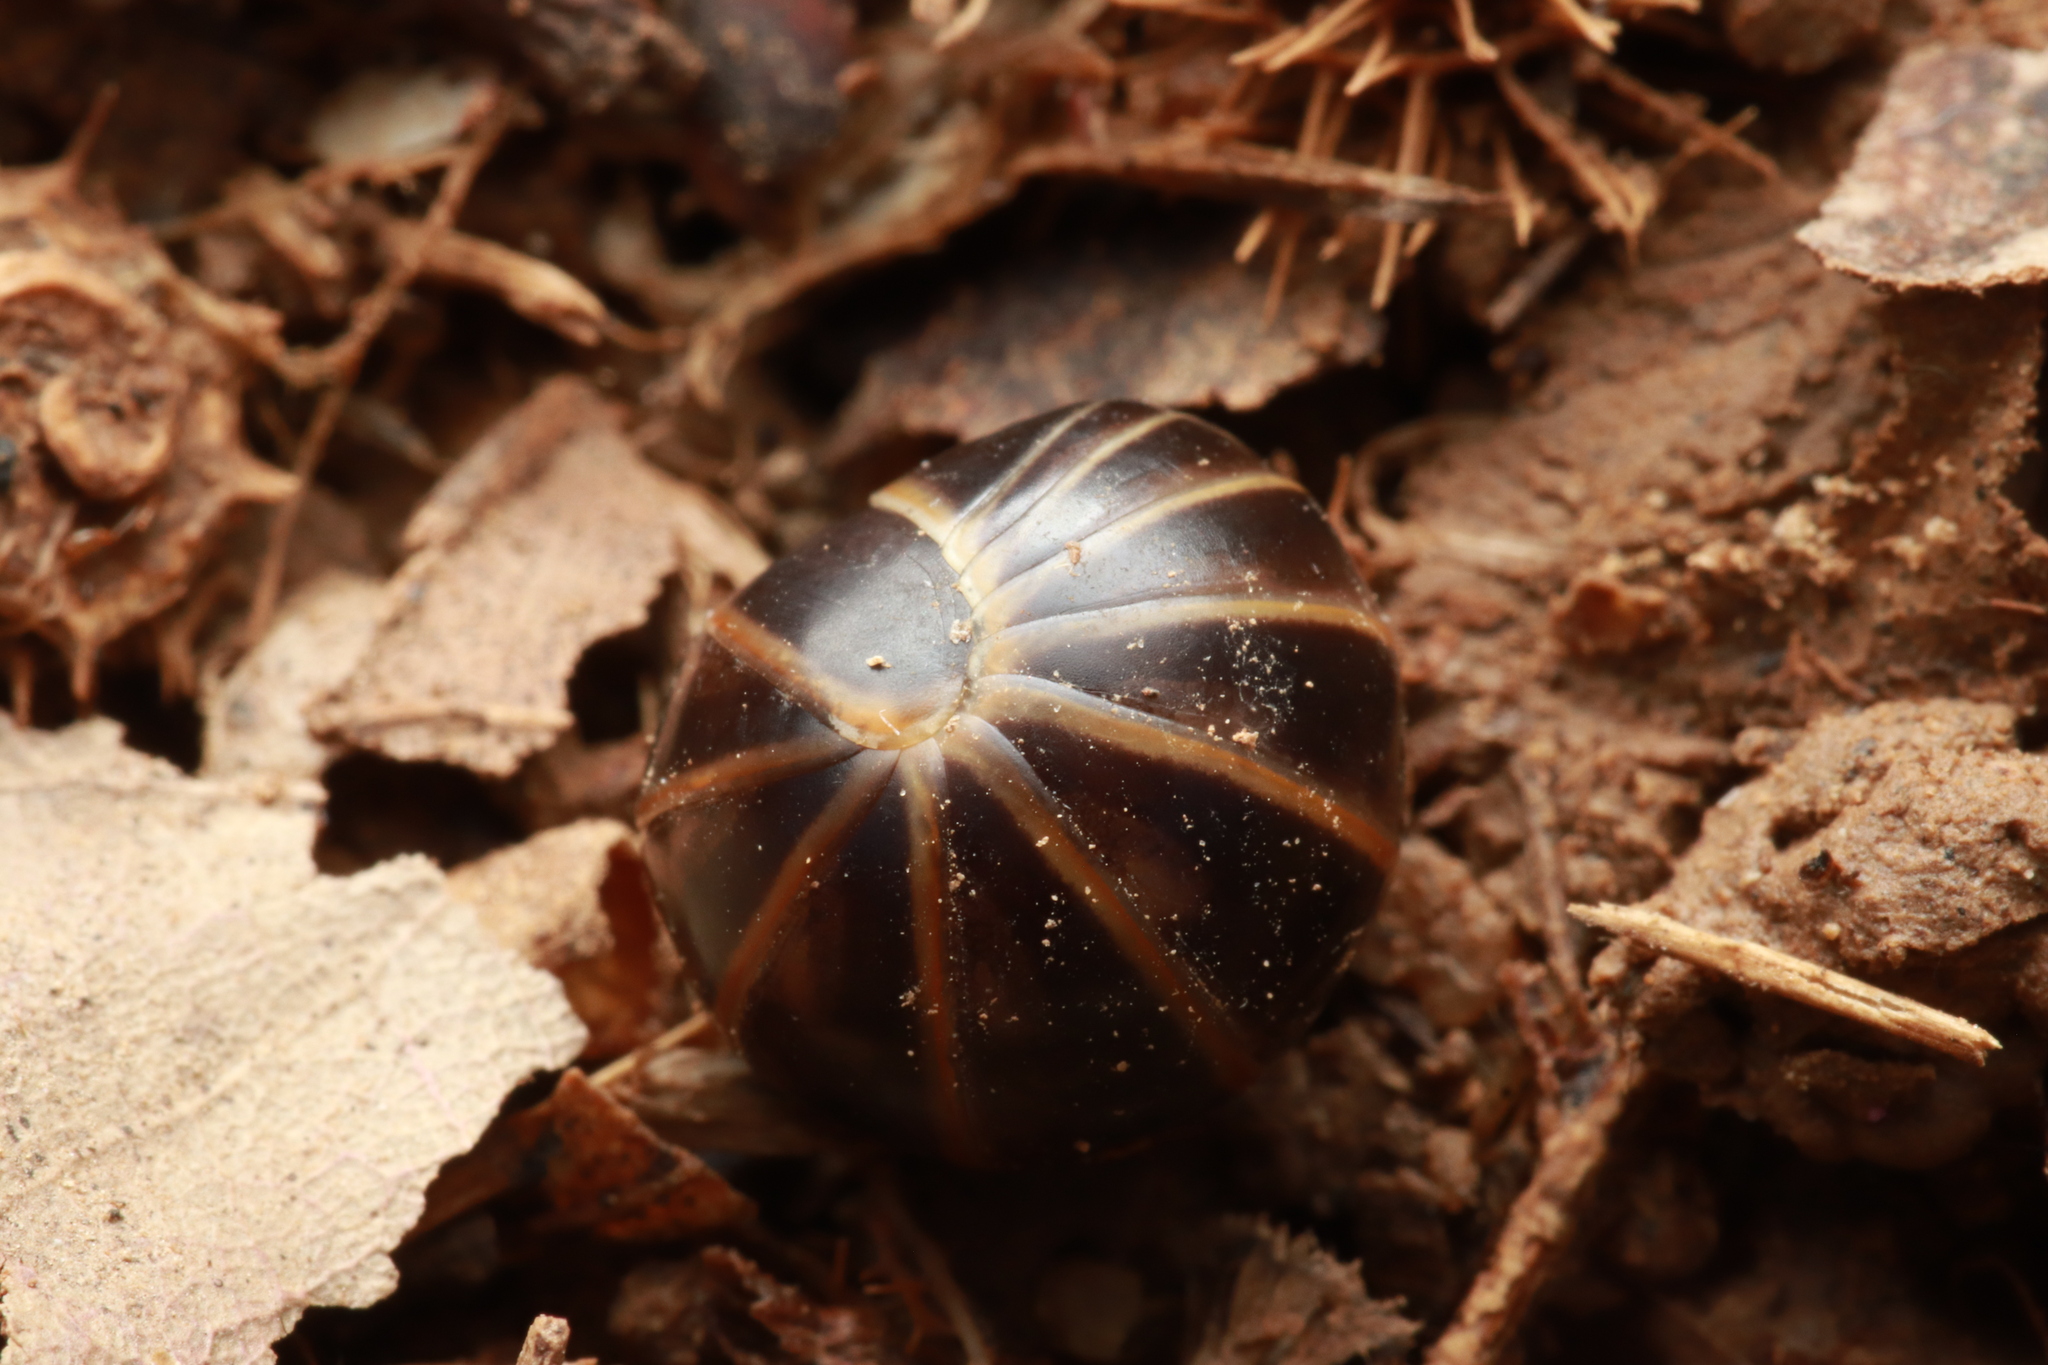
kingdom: Animalia
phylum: Arthropoda
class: Diplopoda
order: Glomerida
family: Glomeridae
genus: Glomeris
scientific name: Glomeris marginata
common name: Bordered pill millipede
